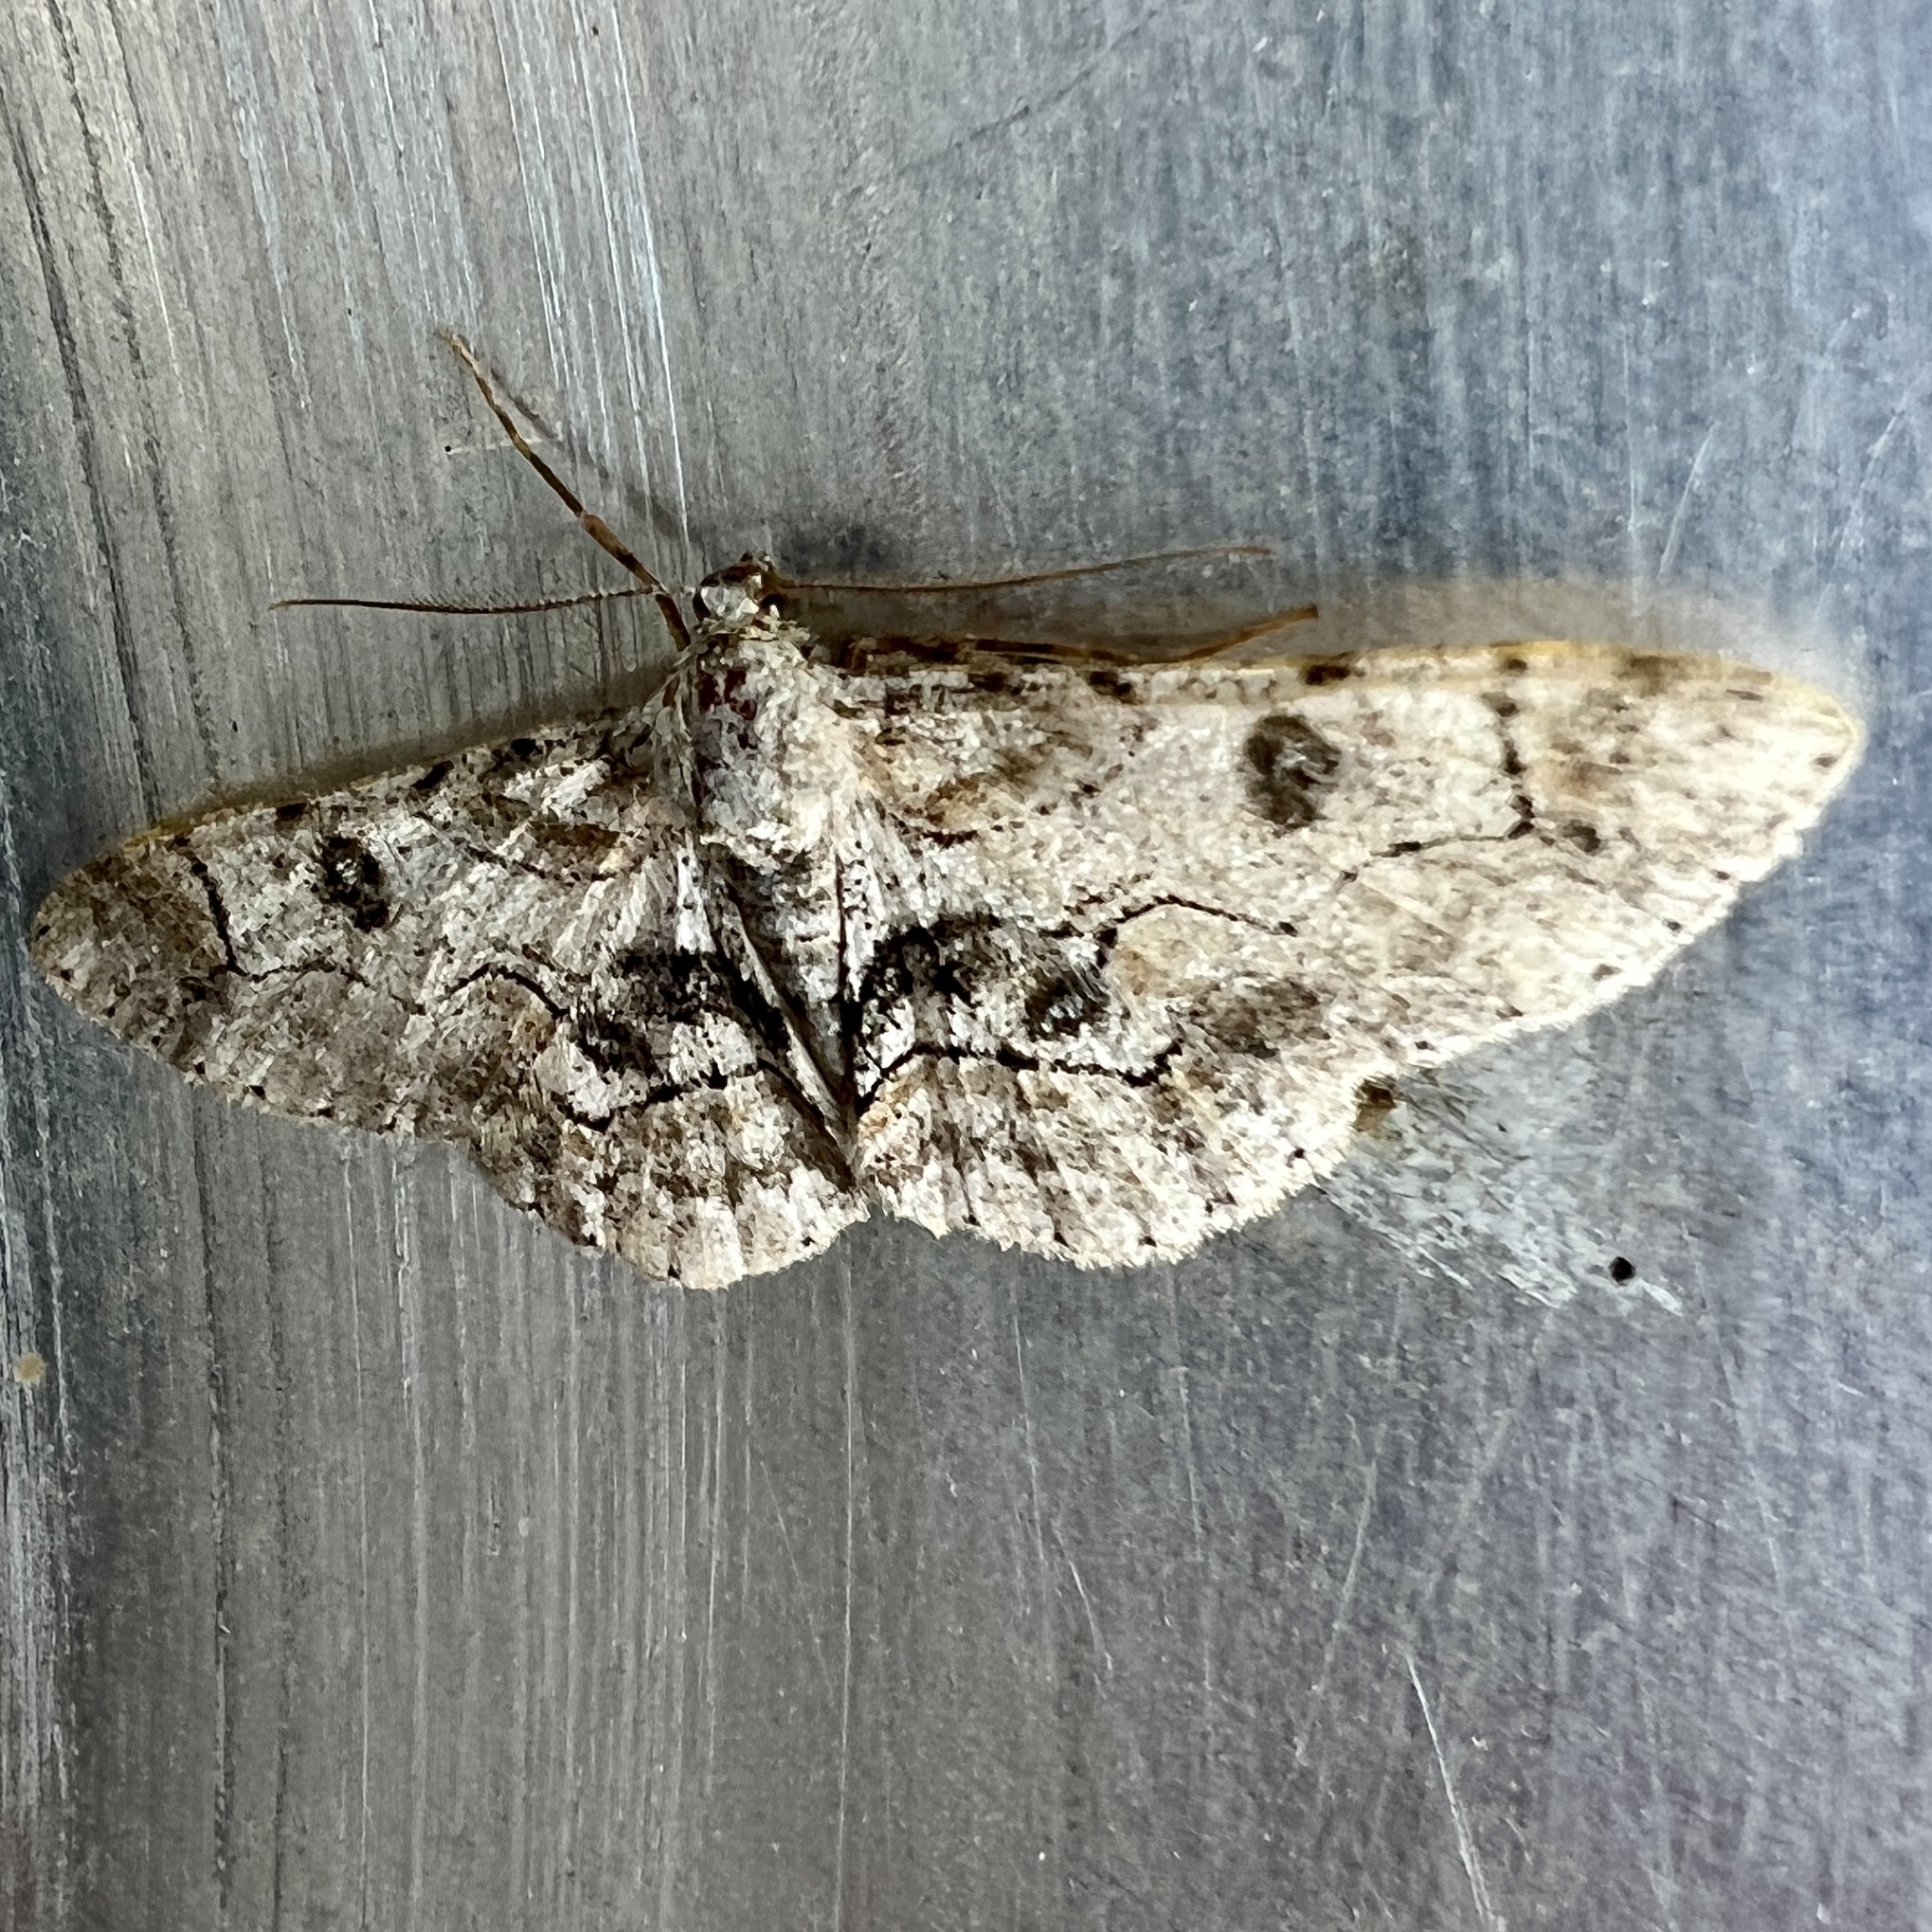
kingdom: Animalia
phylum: Arthropoda
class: Insecta
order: Lepidoptera
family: Geometridae
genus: Iridopsis
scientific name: Iridopsis larvaria
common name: Bent-line gray
